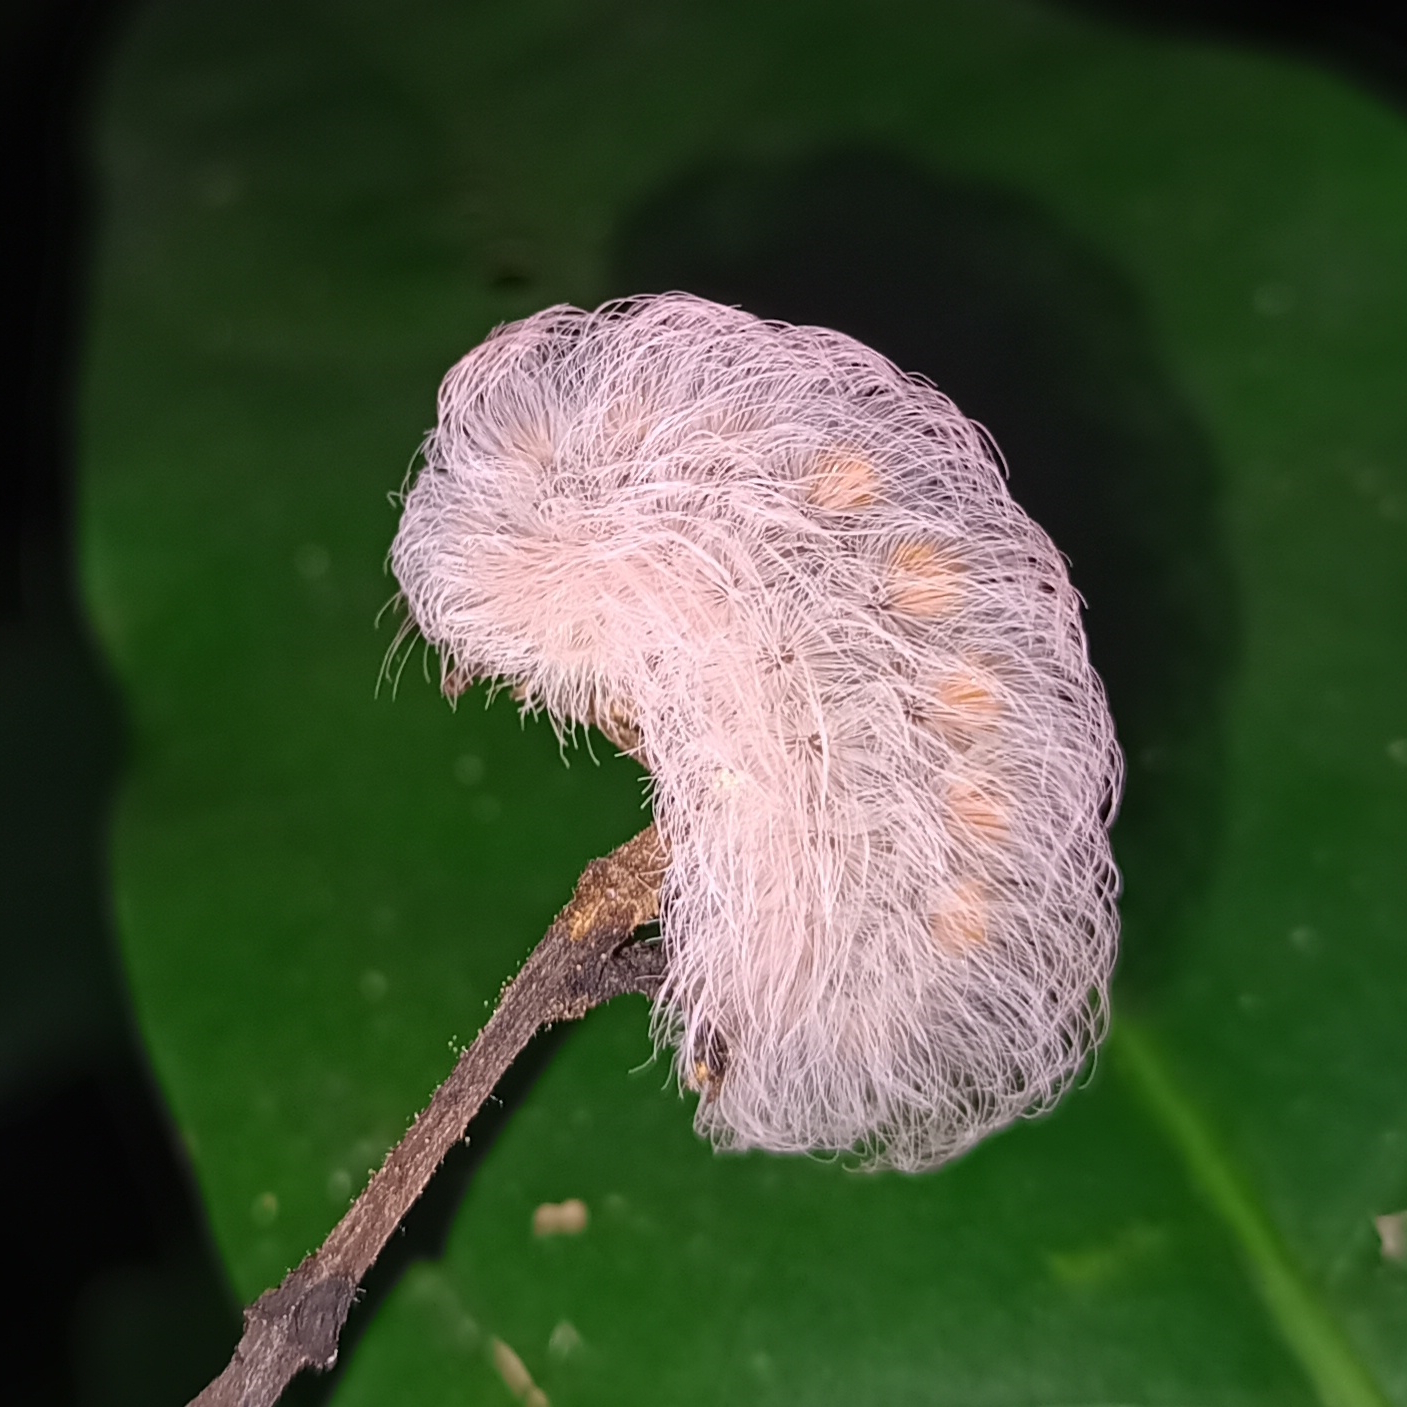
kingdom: Animalia
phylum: Arthropoda
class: Insecta
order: Lepidoptera
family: Megalopygidae
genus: Megalopyge
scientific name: Megalopyge basalis
